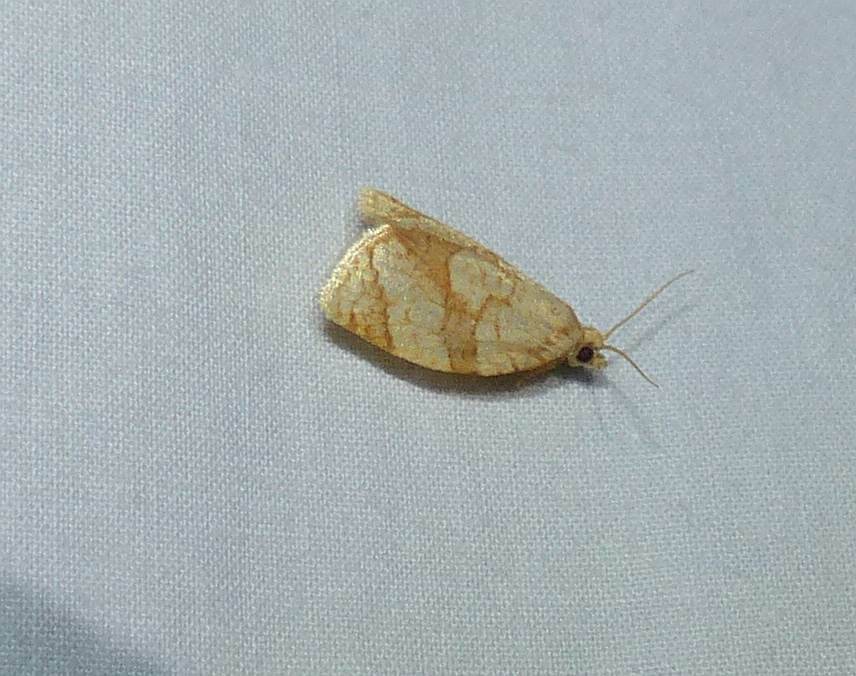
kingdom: Animalia
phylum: Arthropoda
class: Insecta
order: Lepidoptera
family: Tortricidae
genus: Adoxophyes
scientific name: Adoxophyes negundana
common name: Shimmering gold adoxophyes moth
